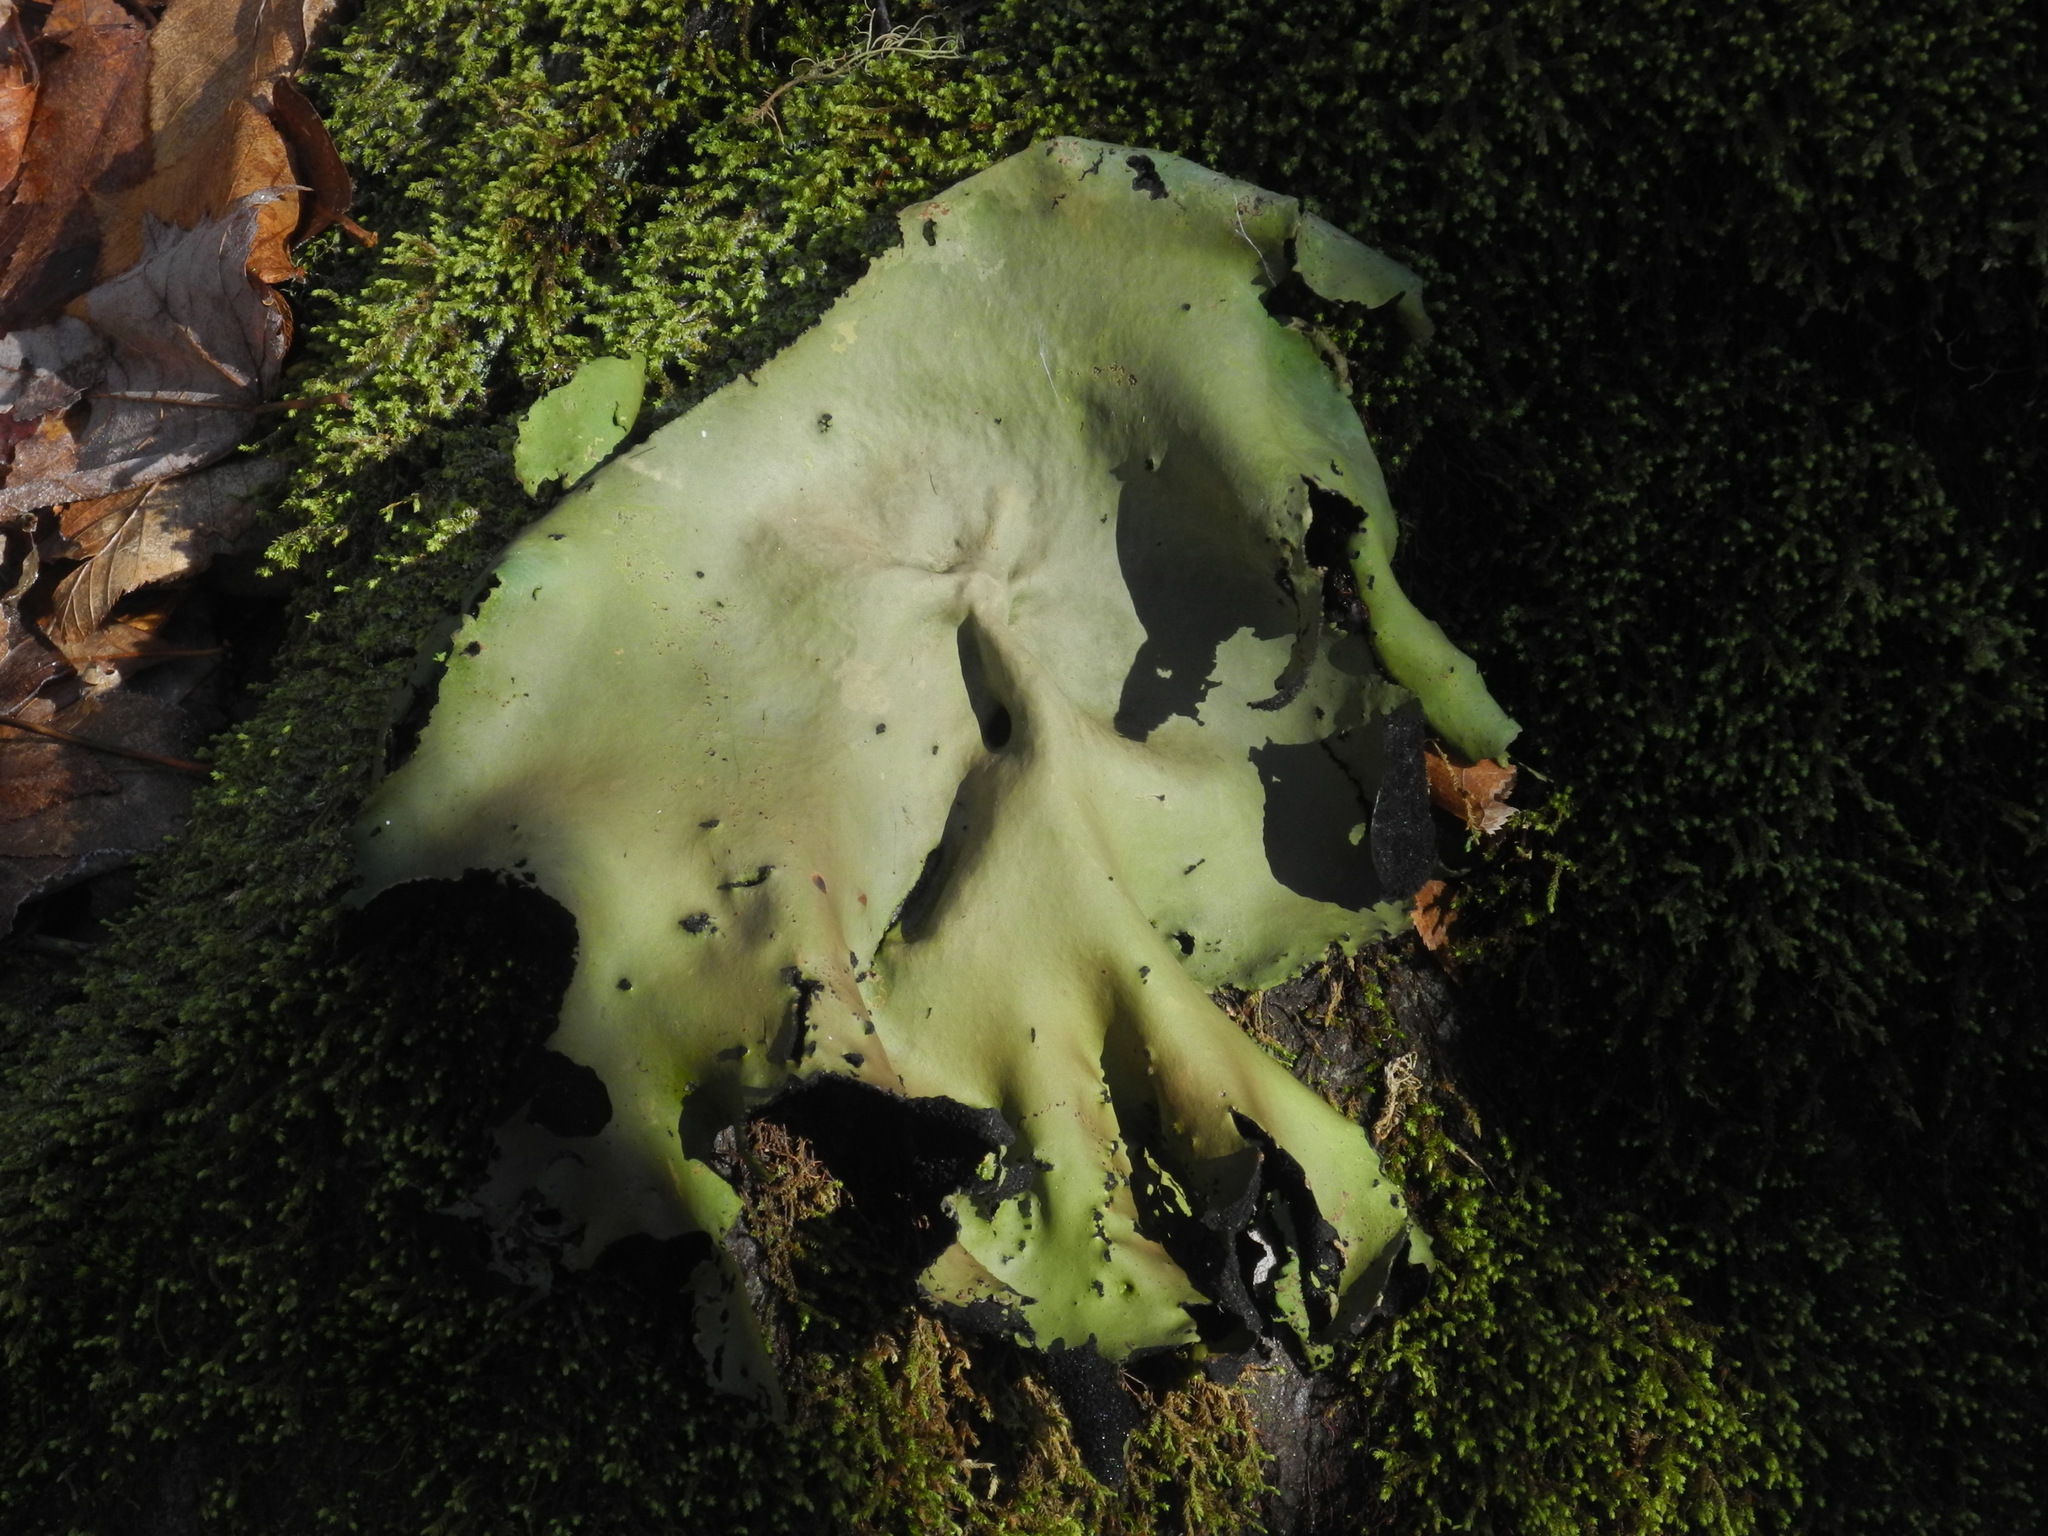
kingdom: Fungi
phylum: Ascomycota
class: Lecanoromycetes
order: Umbilicariales
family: Umbilicariaceae
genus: Umbilicaria
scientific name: Umbilicaria mammulata
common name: Smooth rock tripe
